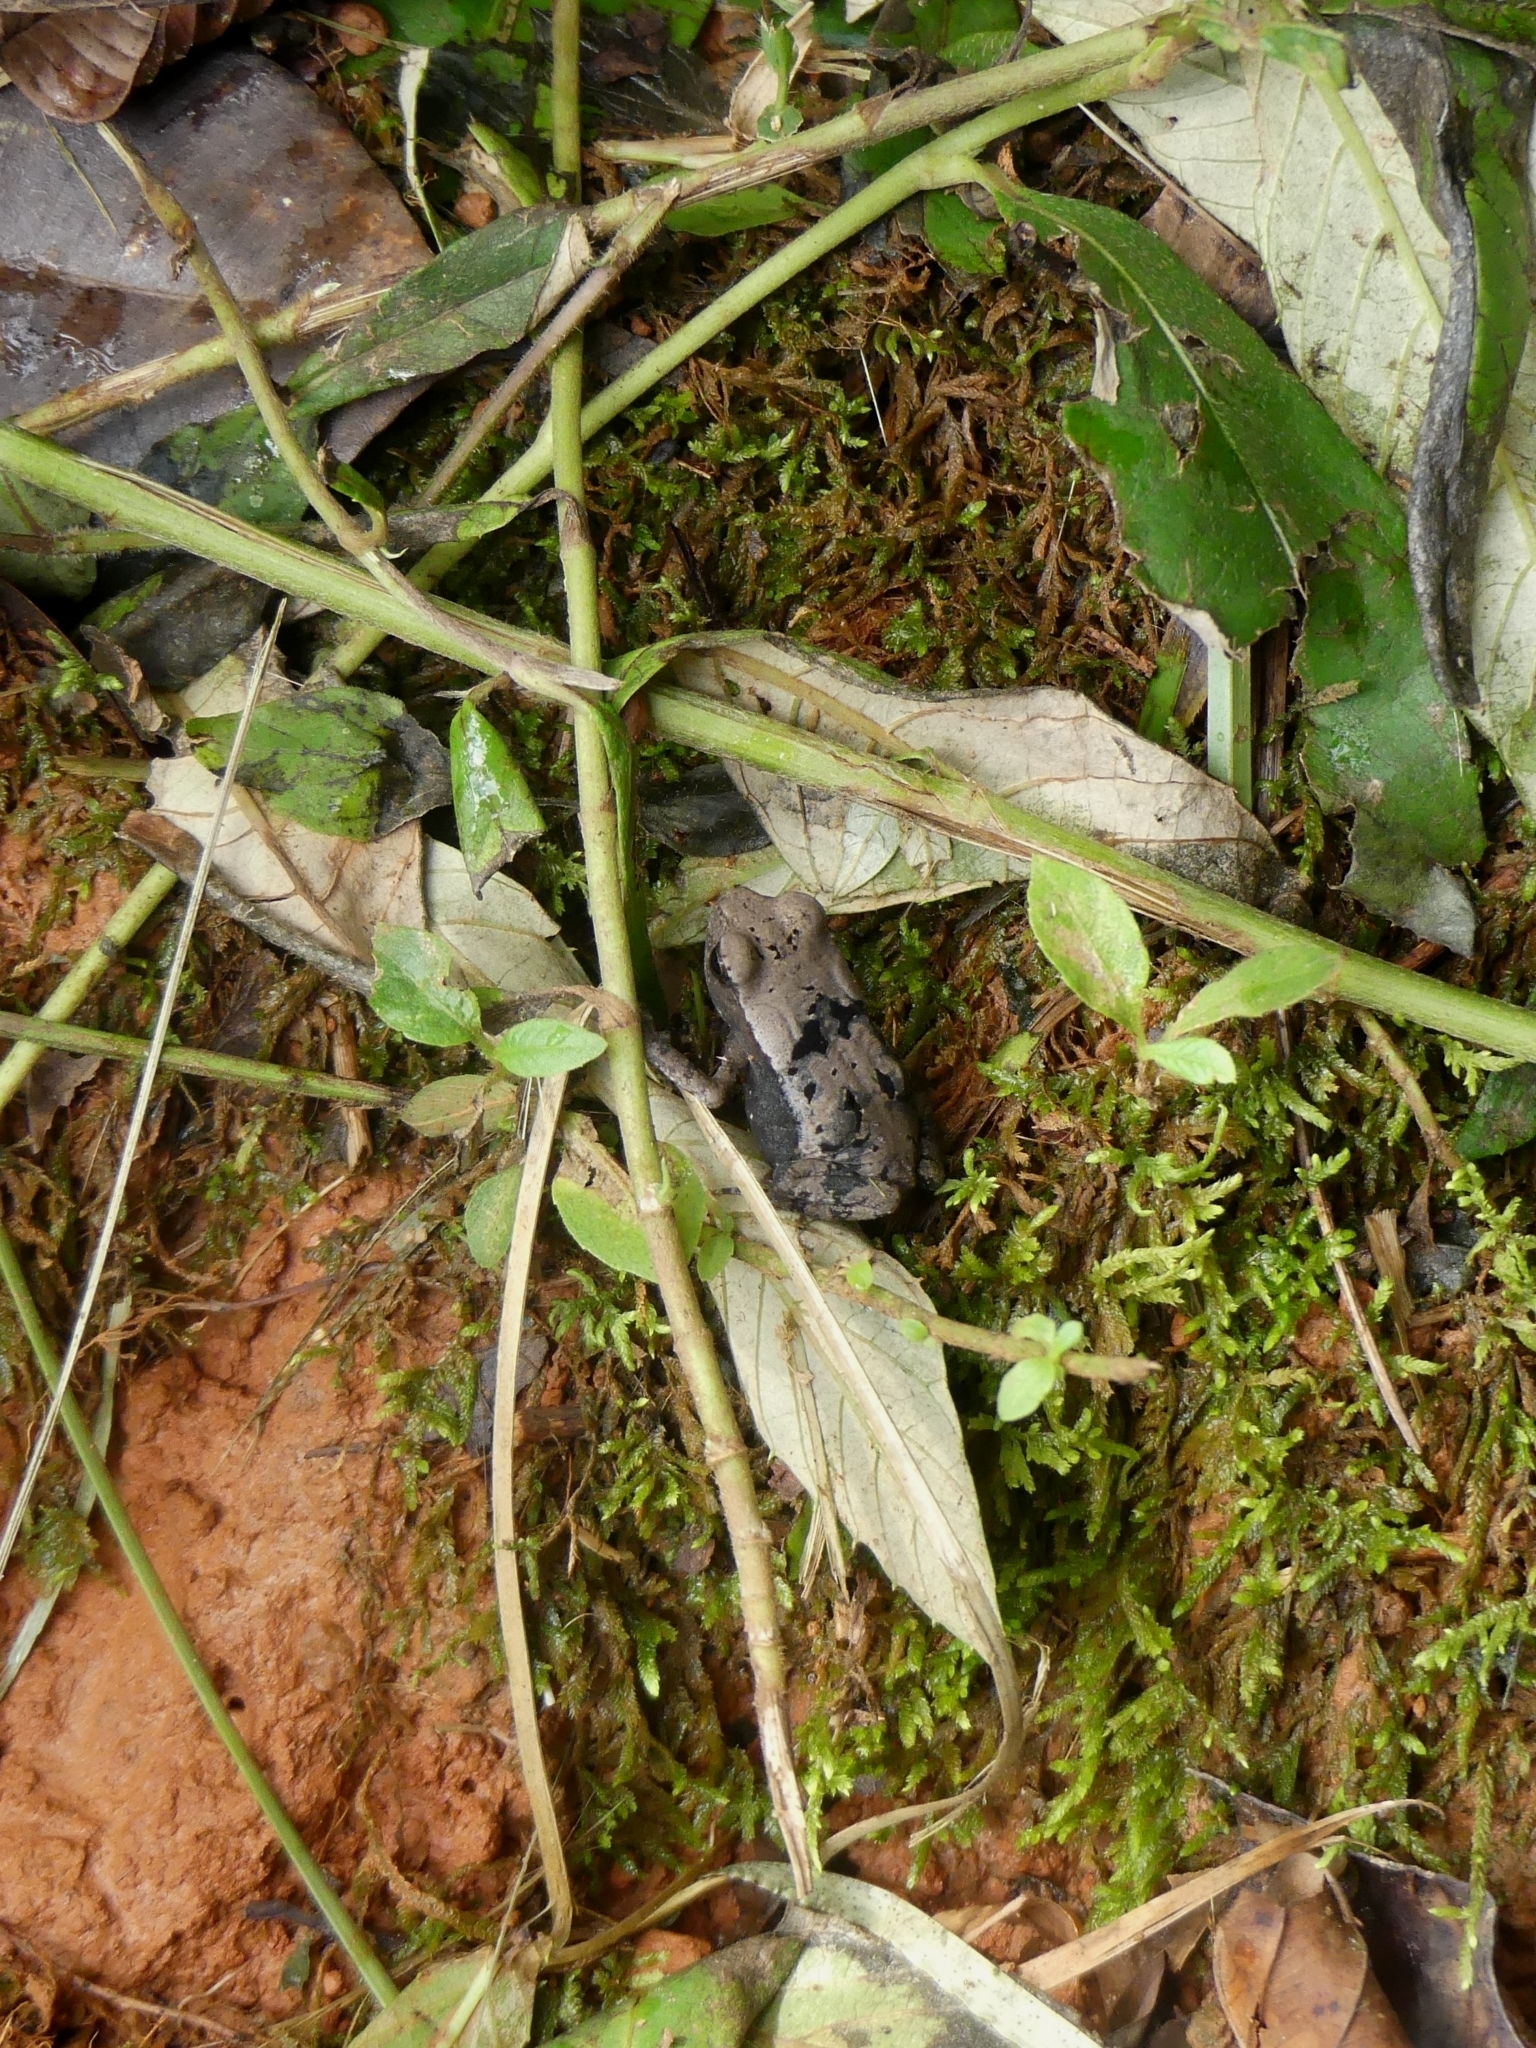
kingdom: Animalia
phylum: Chordata
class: Amphibia
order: Anura
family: Bufonidae
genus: Rhaebo
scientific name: Rhaebo guttatus
